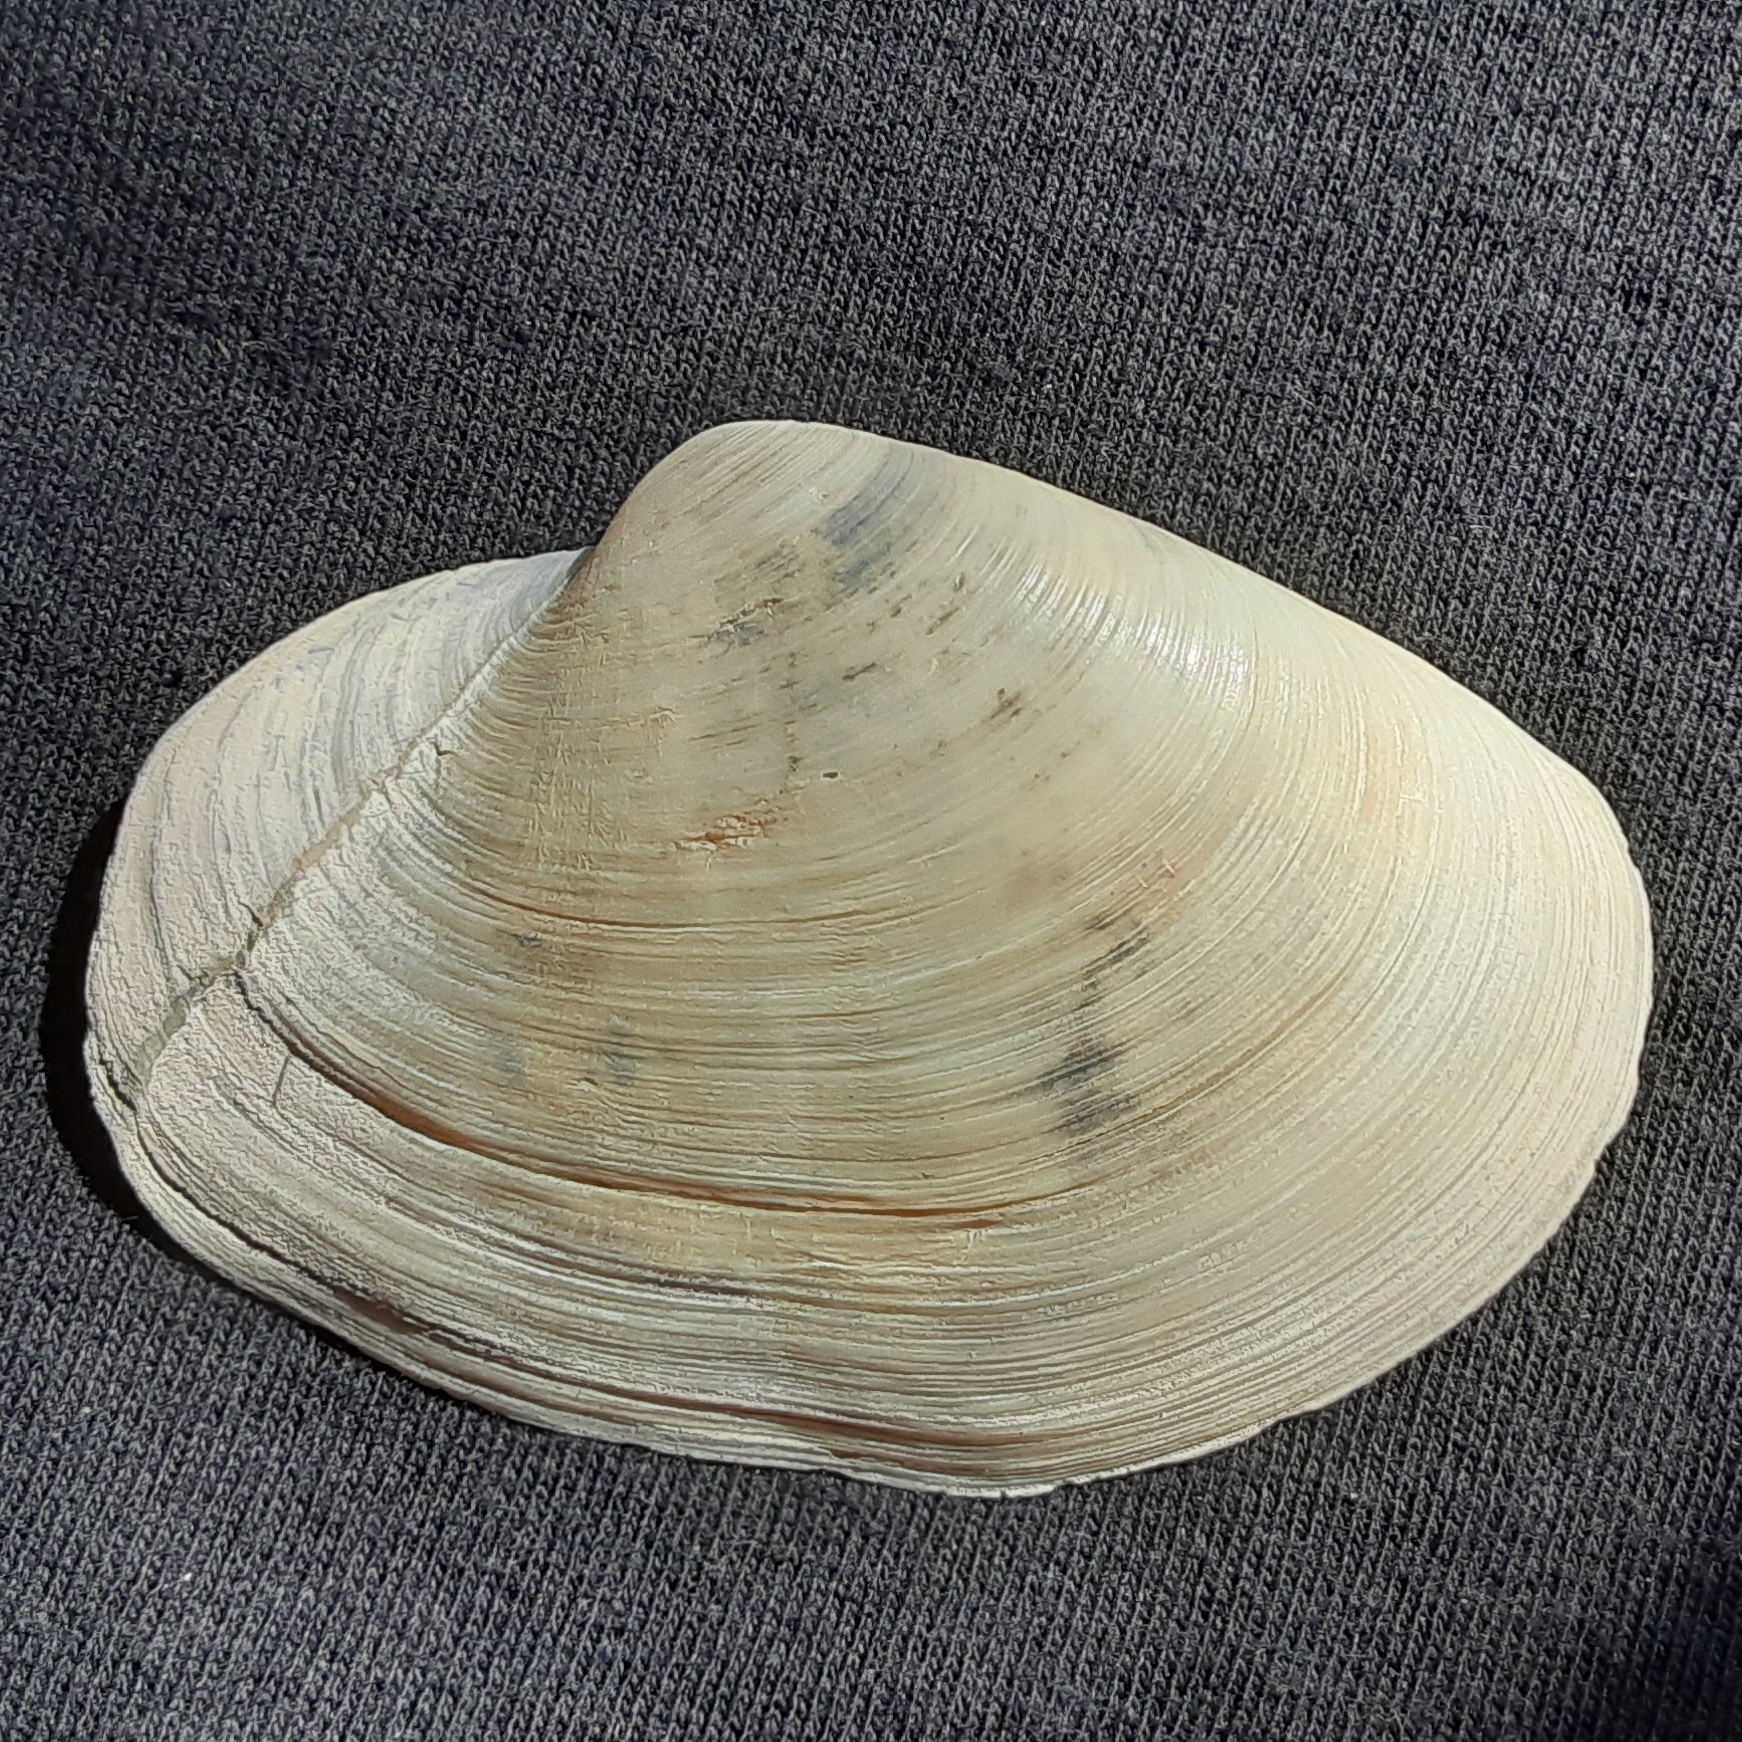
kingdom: Animalia
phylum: Mollusca
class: Bivalvia
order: Venerida
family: Anatinellidae
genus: Anatina
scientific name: Anatina anatina
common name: Smooth duckclam
